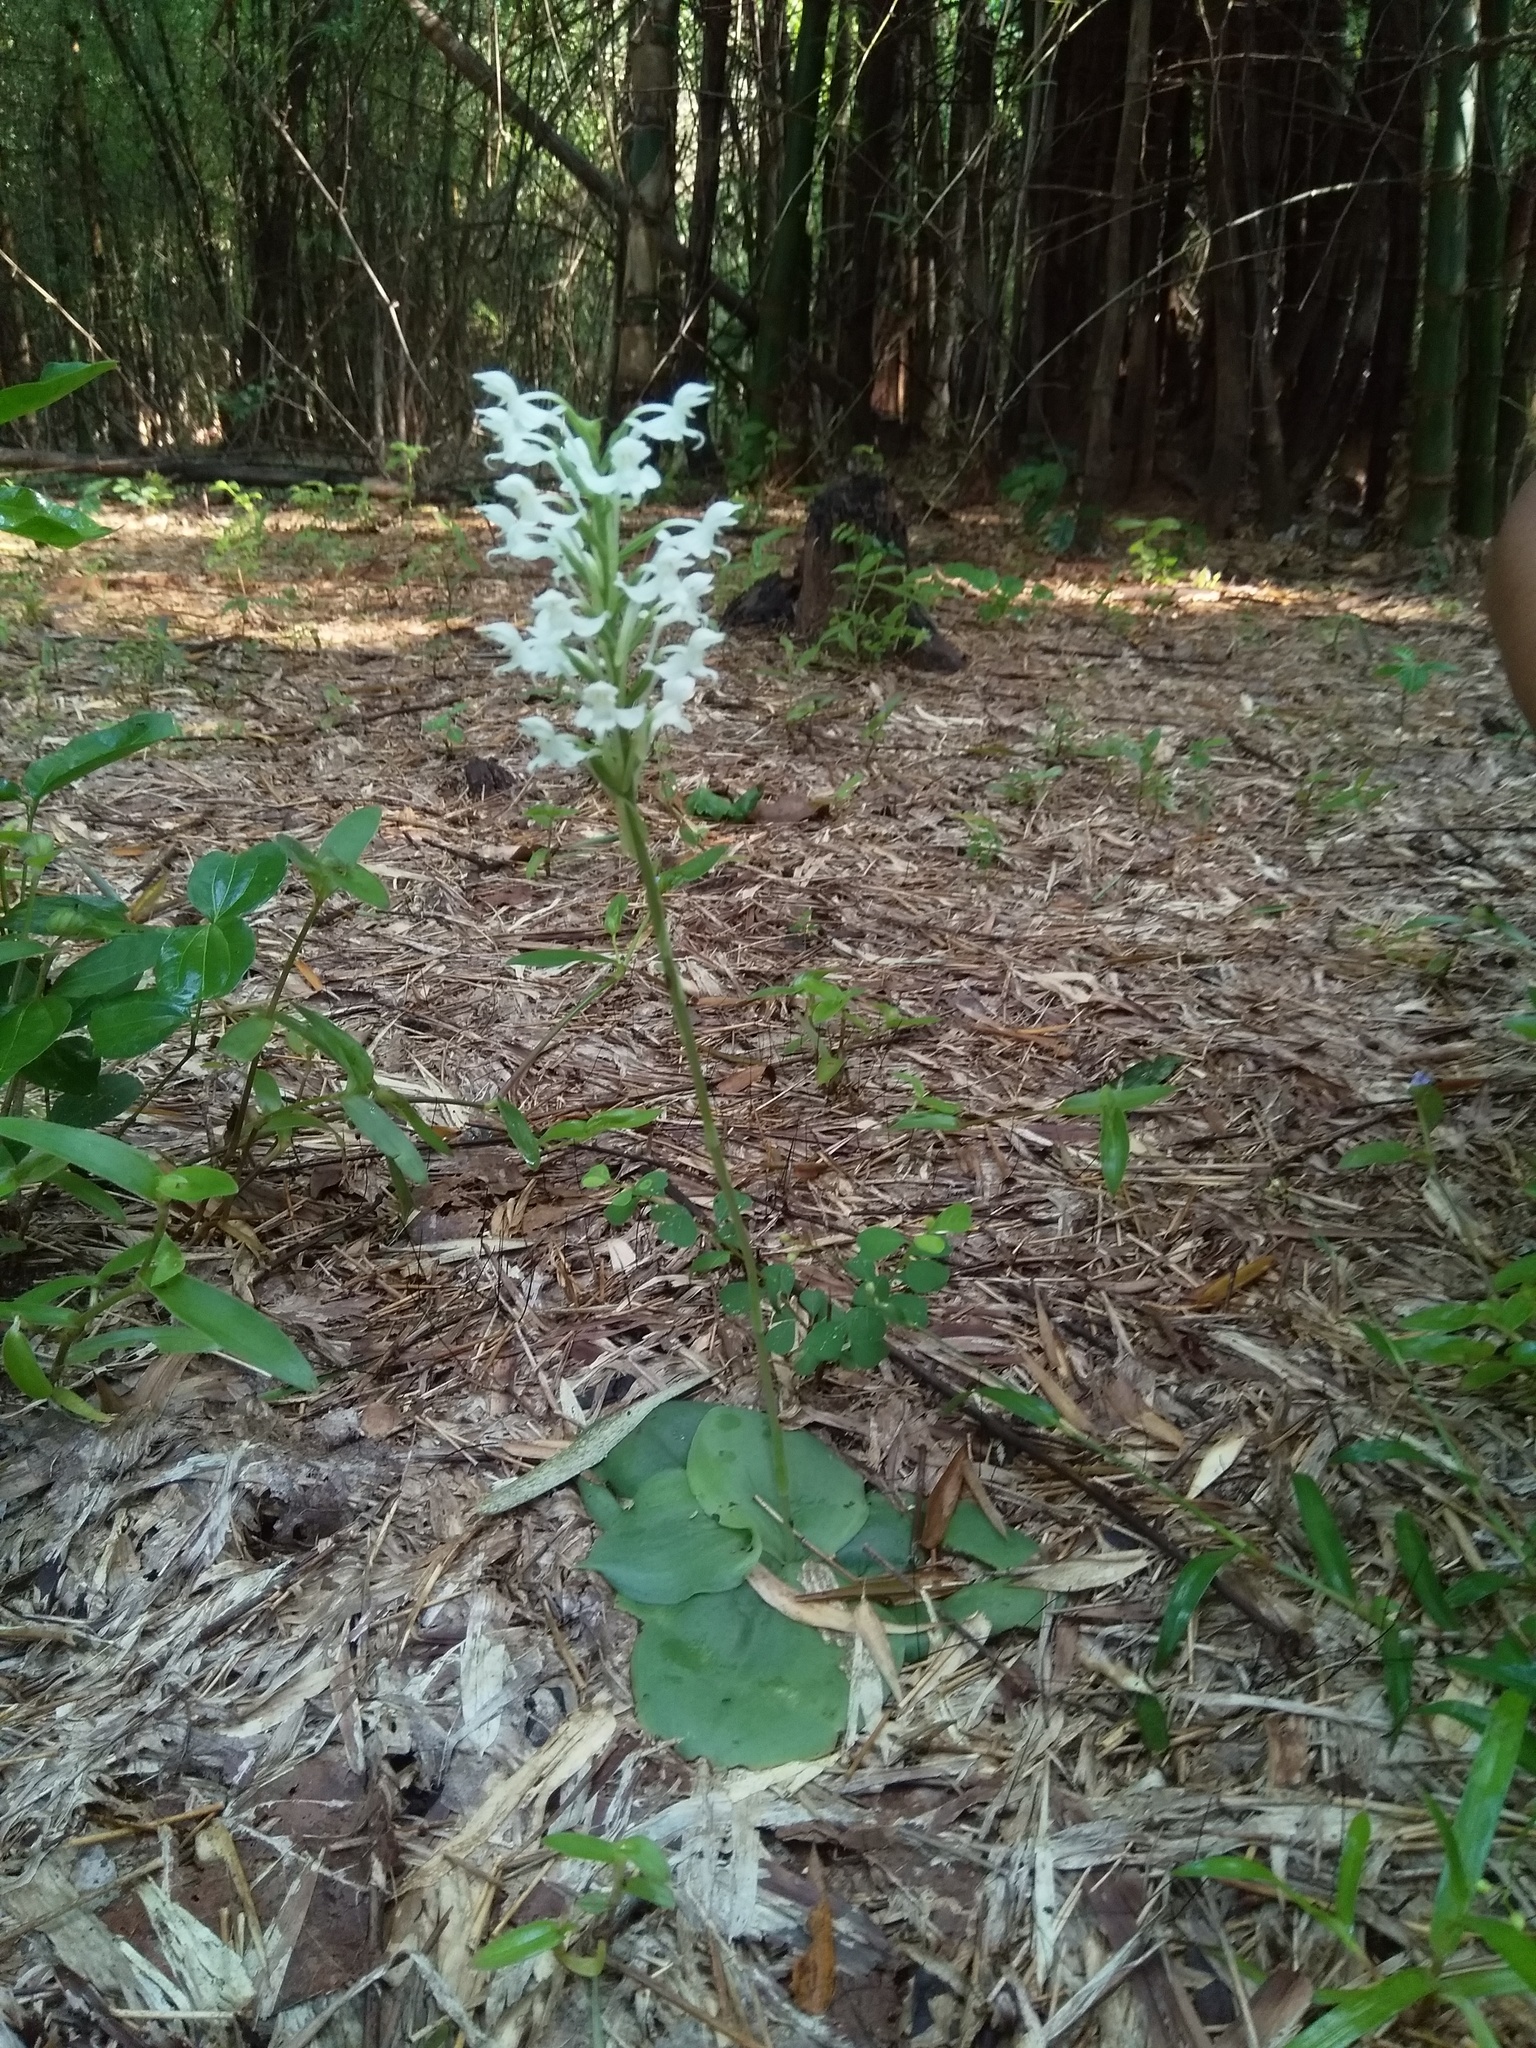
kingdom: Plantae
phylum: Tracheophyta
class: Liliopsida
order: Asparagales
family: Orchidaceae
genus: Habenaria
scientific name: Habenaria roxburghii
